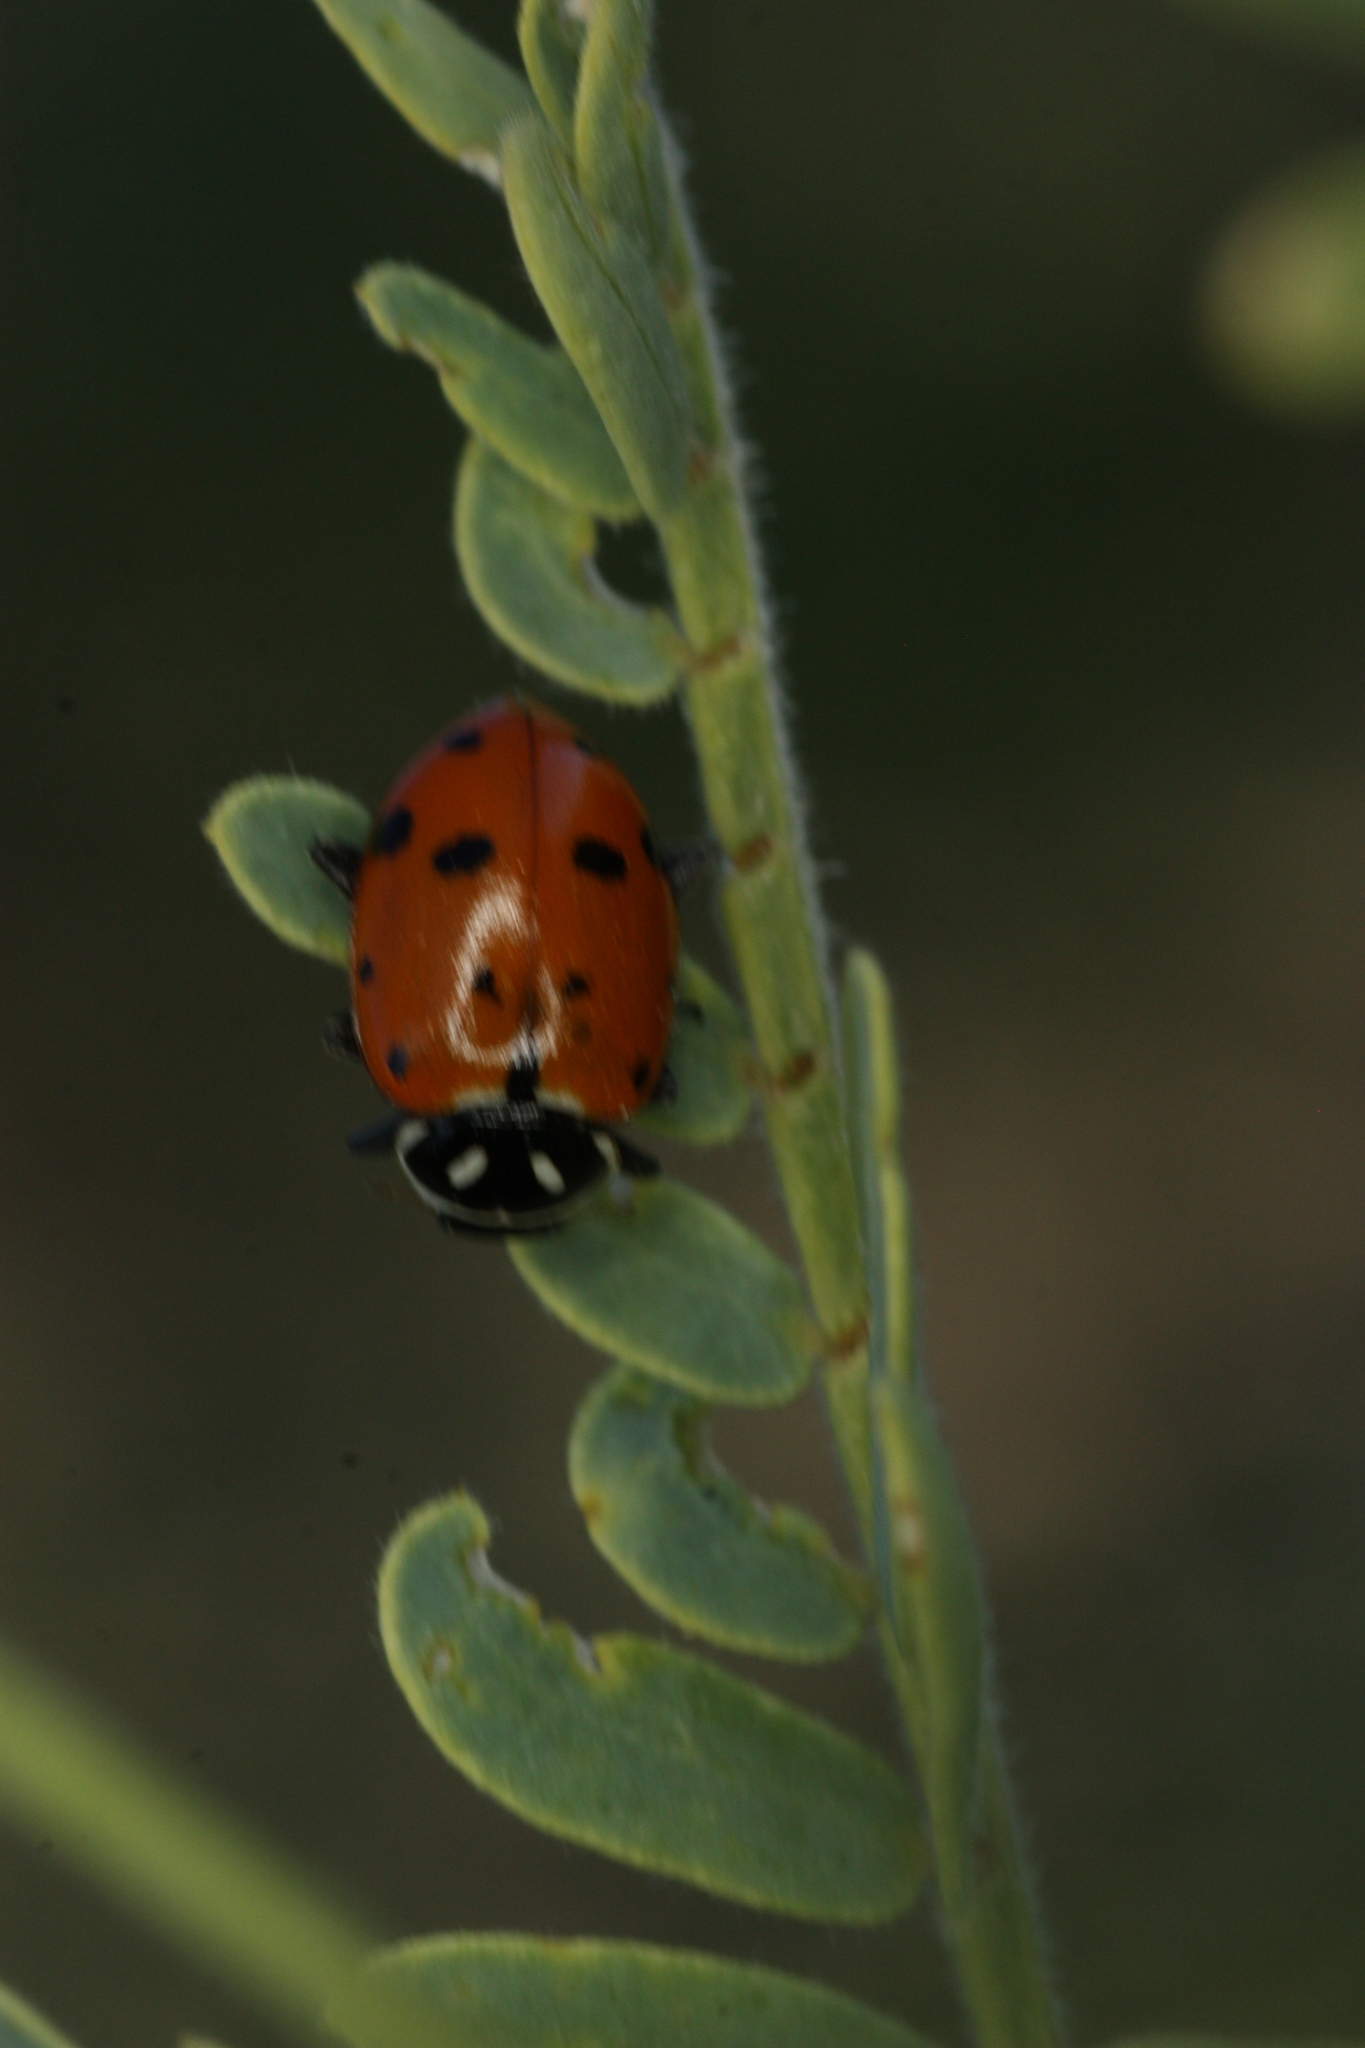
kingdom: Animalia
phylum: Arthropoda
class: Insecta
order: Coleoptera
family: Coccinellidae
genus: Hippodamia
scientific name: Hippodamia convergens
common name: Convergent lady beetle
